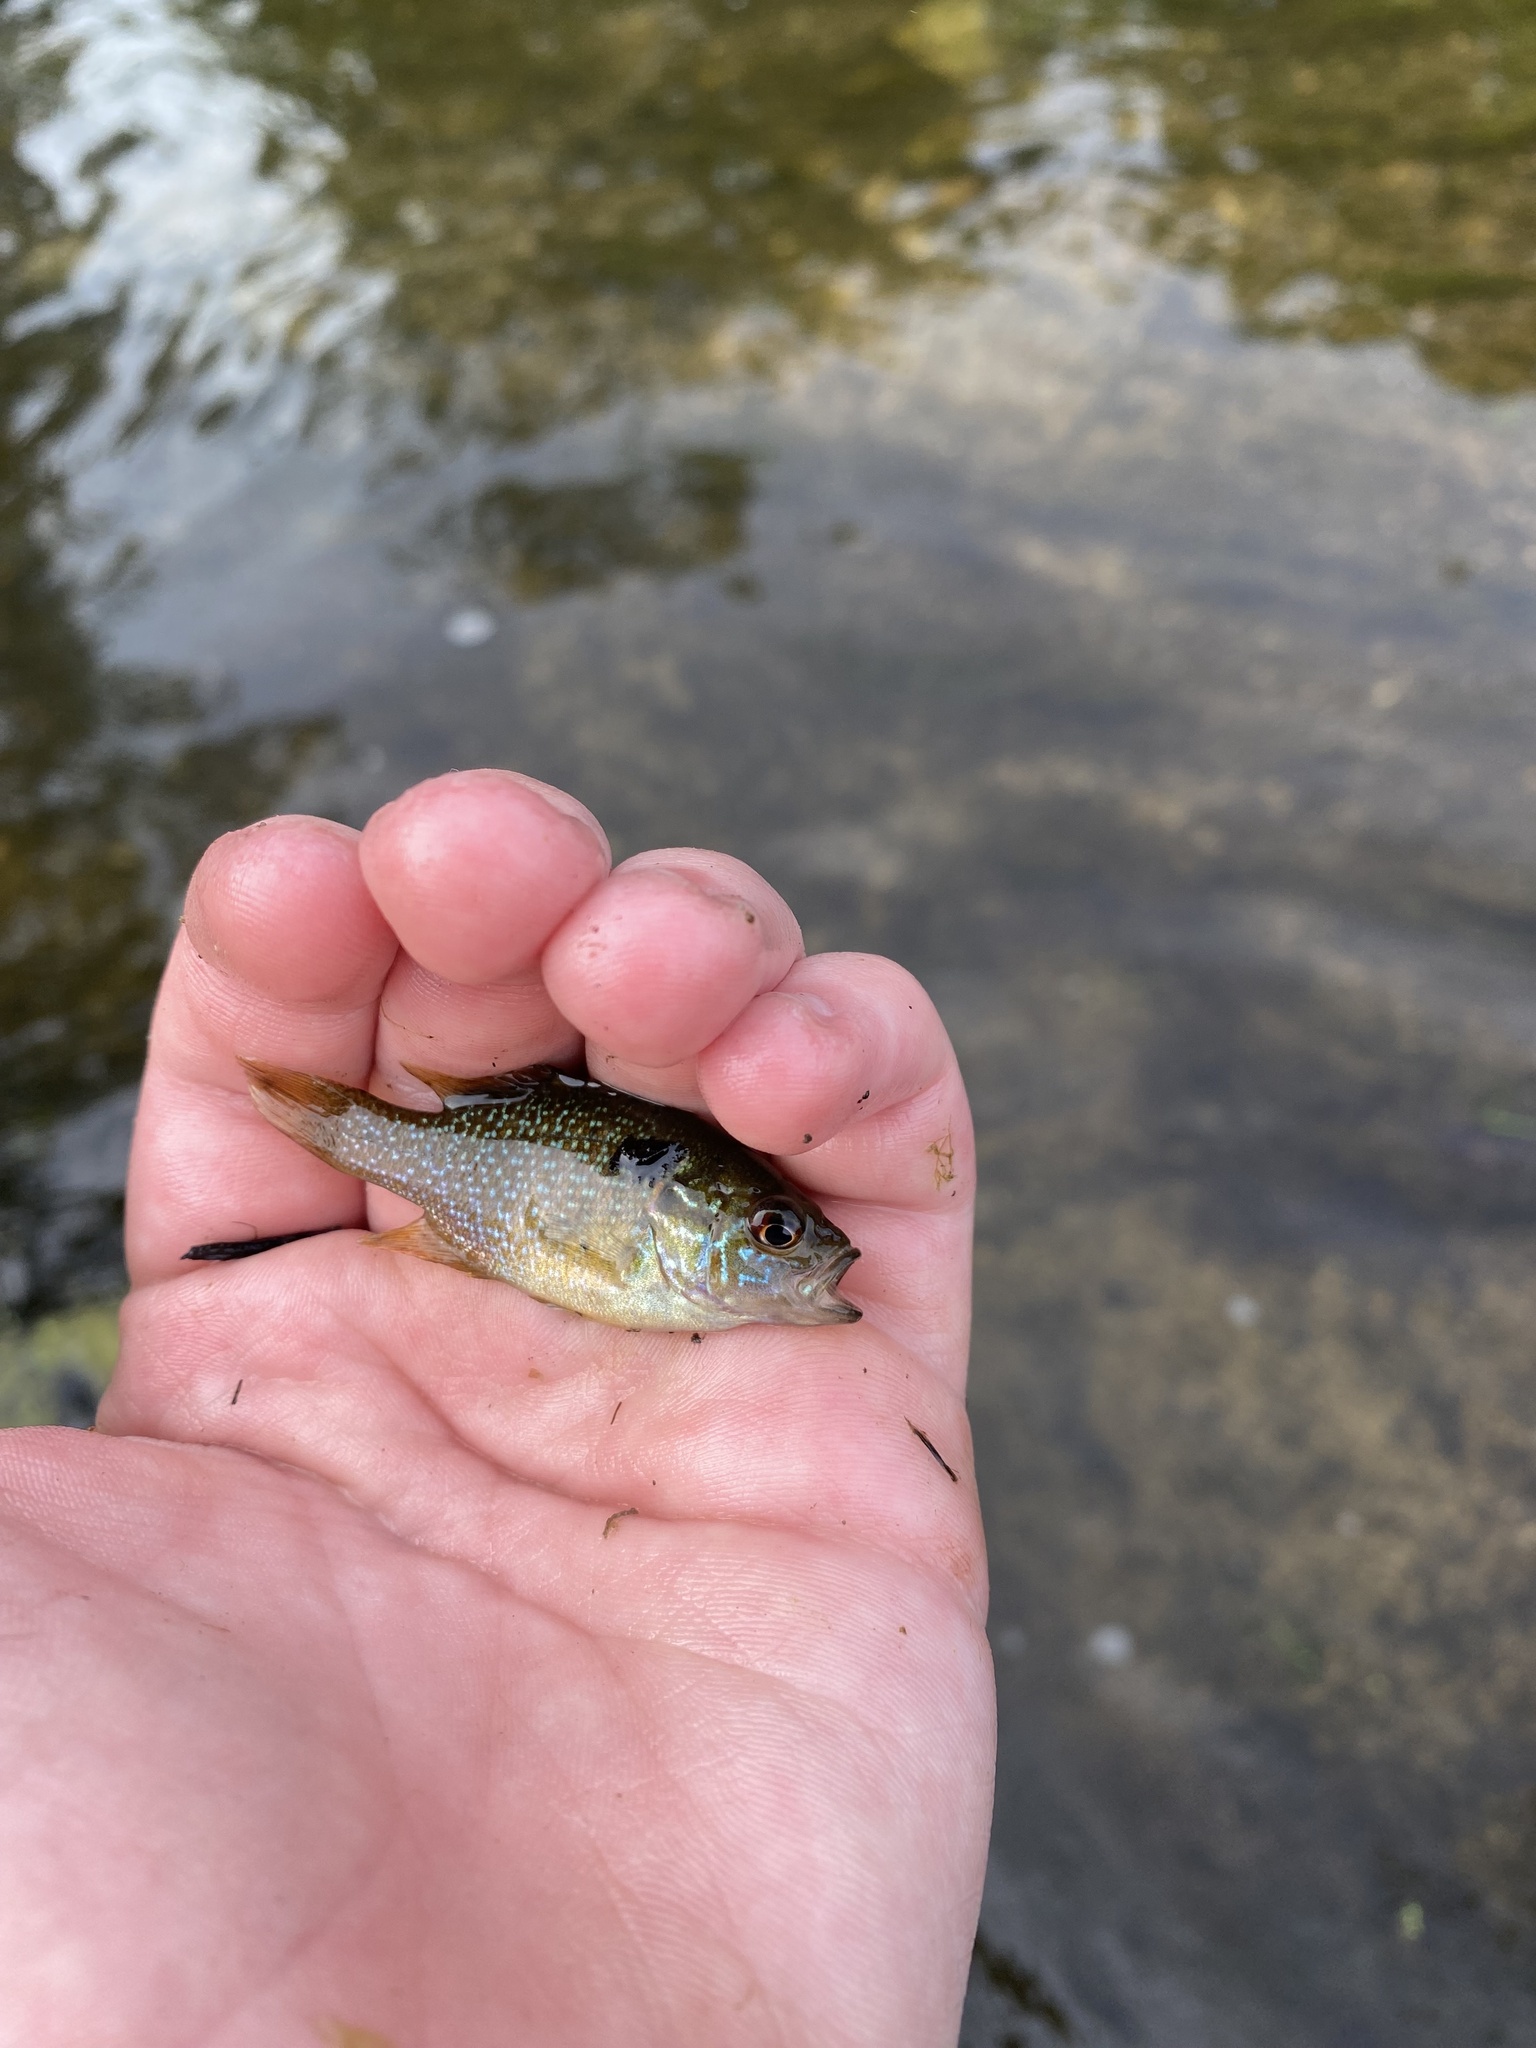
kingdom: Animalia
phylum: Chordata
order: Perciformes
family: Centrarchidae
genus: Lepomis
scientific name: Lepomis cyanellus
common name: Green sunfish
